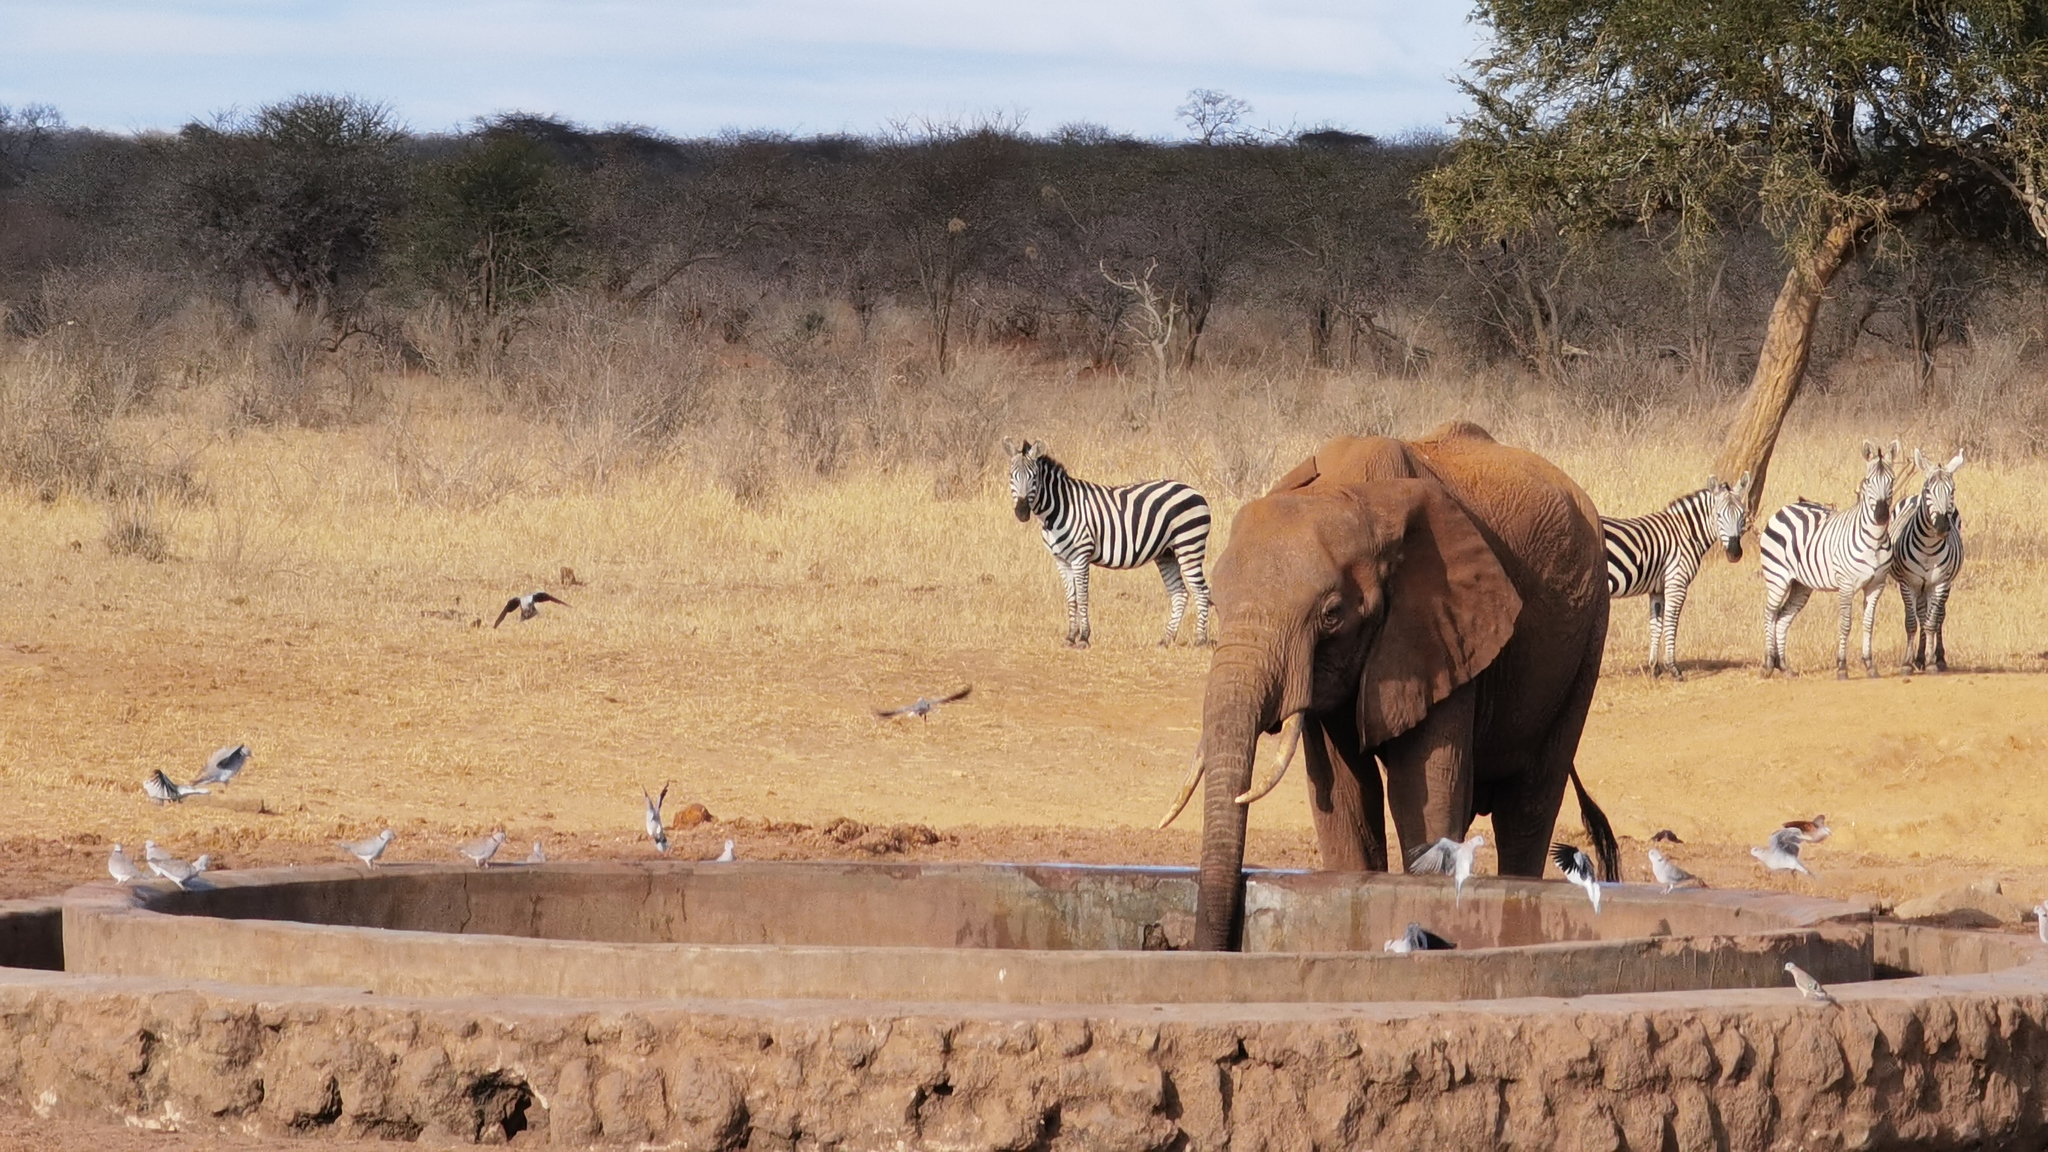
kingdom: Animalia
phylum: Chordata
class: Mammalia
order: Proboscidea
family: Elephantidae
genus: Loxodonta
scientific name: Loxodonta africana
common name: African elephant
